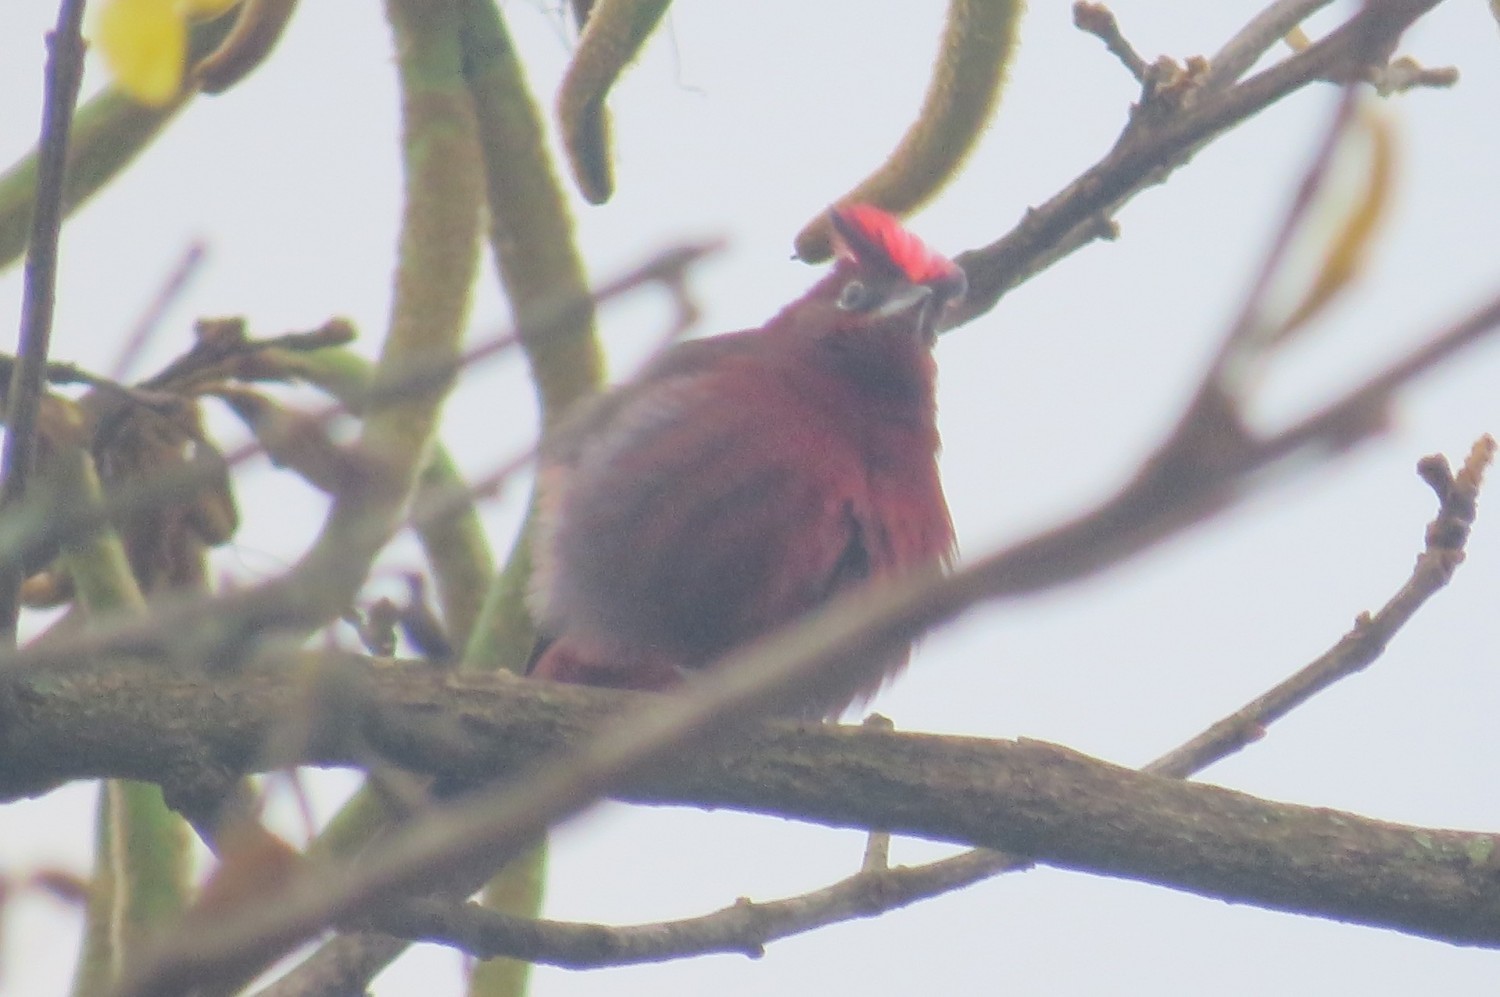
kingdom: Animalia
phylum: Chordata
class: Aves
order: Passeriformes
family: Thraupidae
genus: Coryphospingus
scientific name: Coryphospingus cucullatus
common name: Red pileated finch
